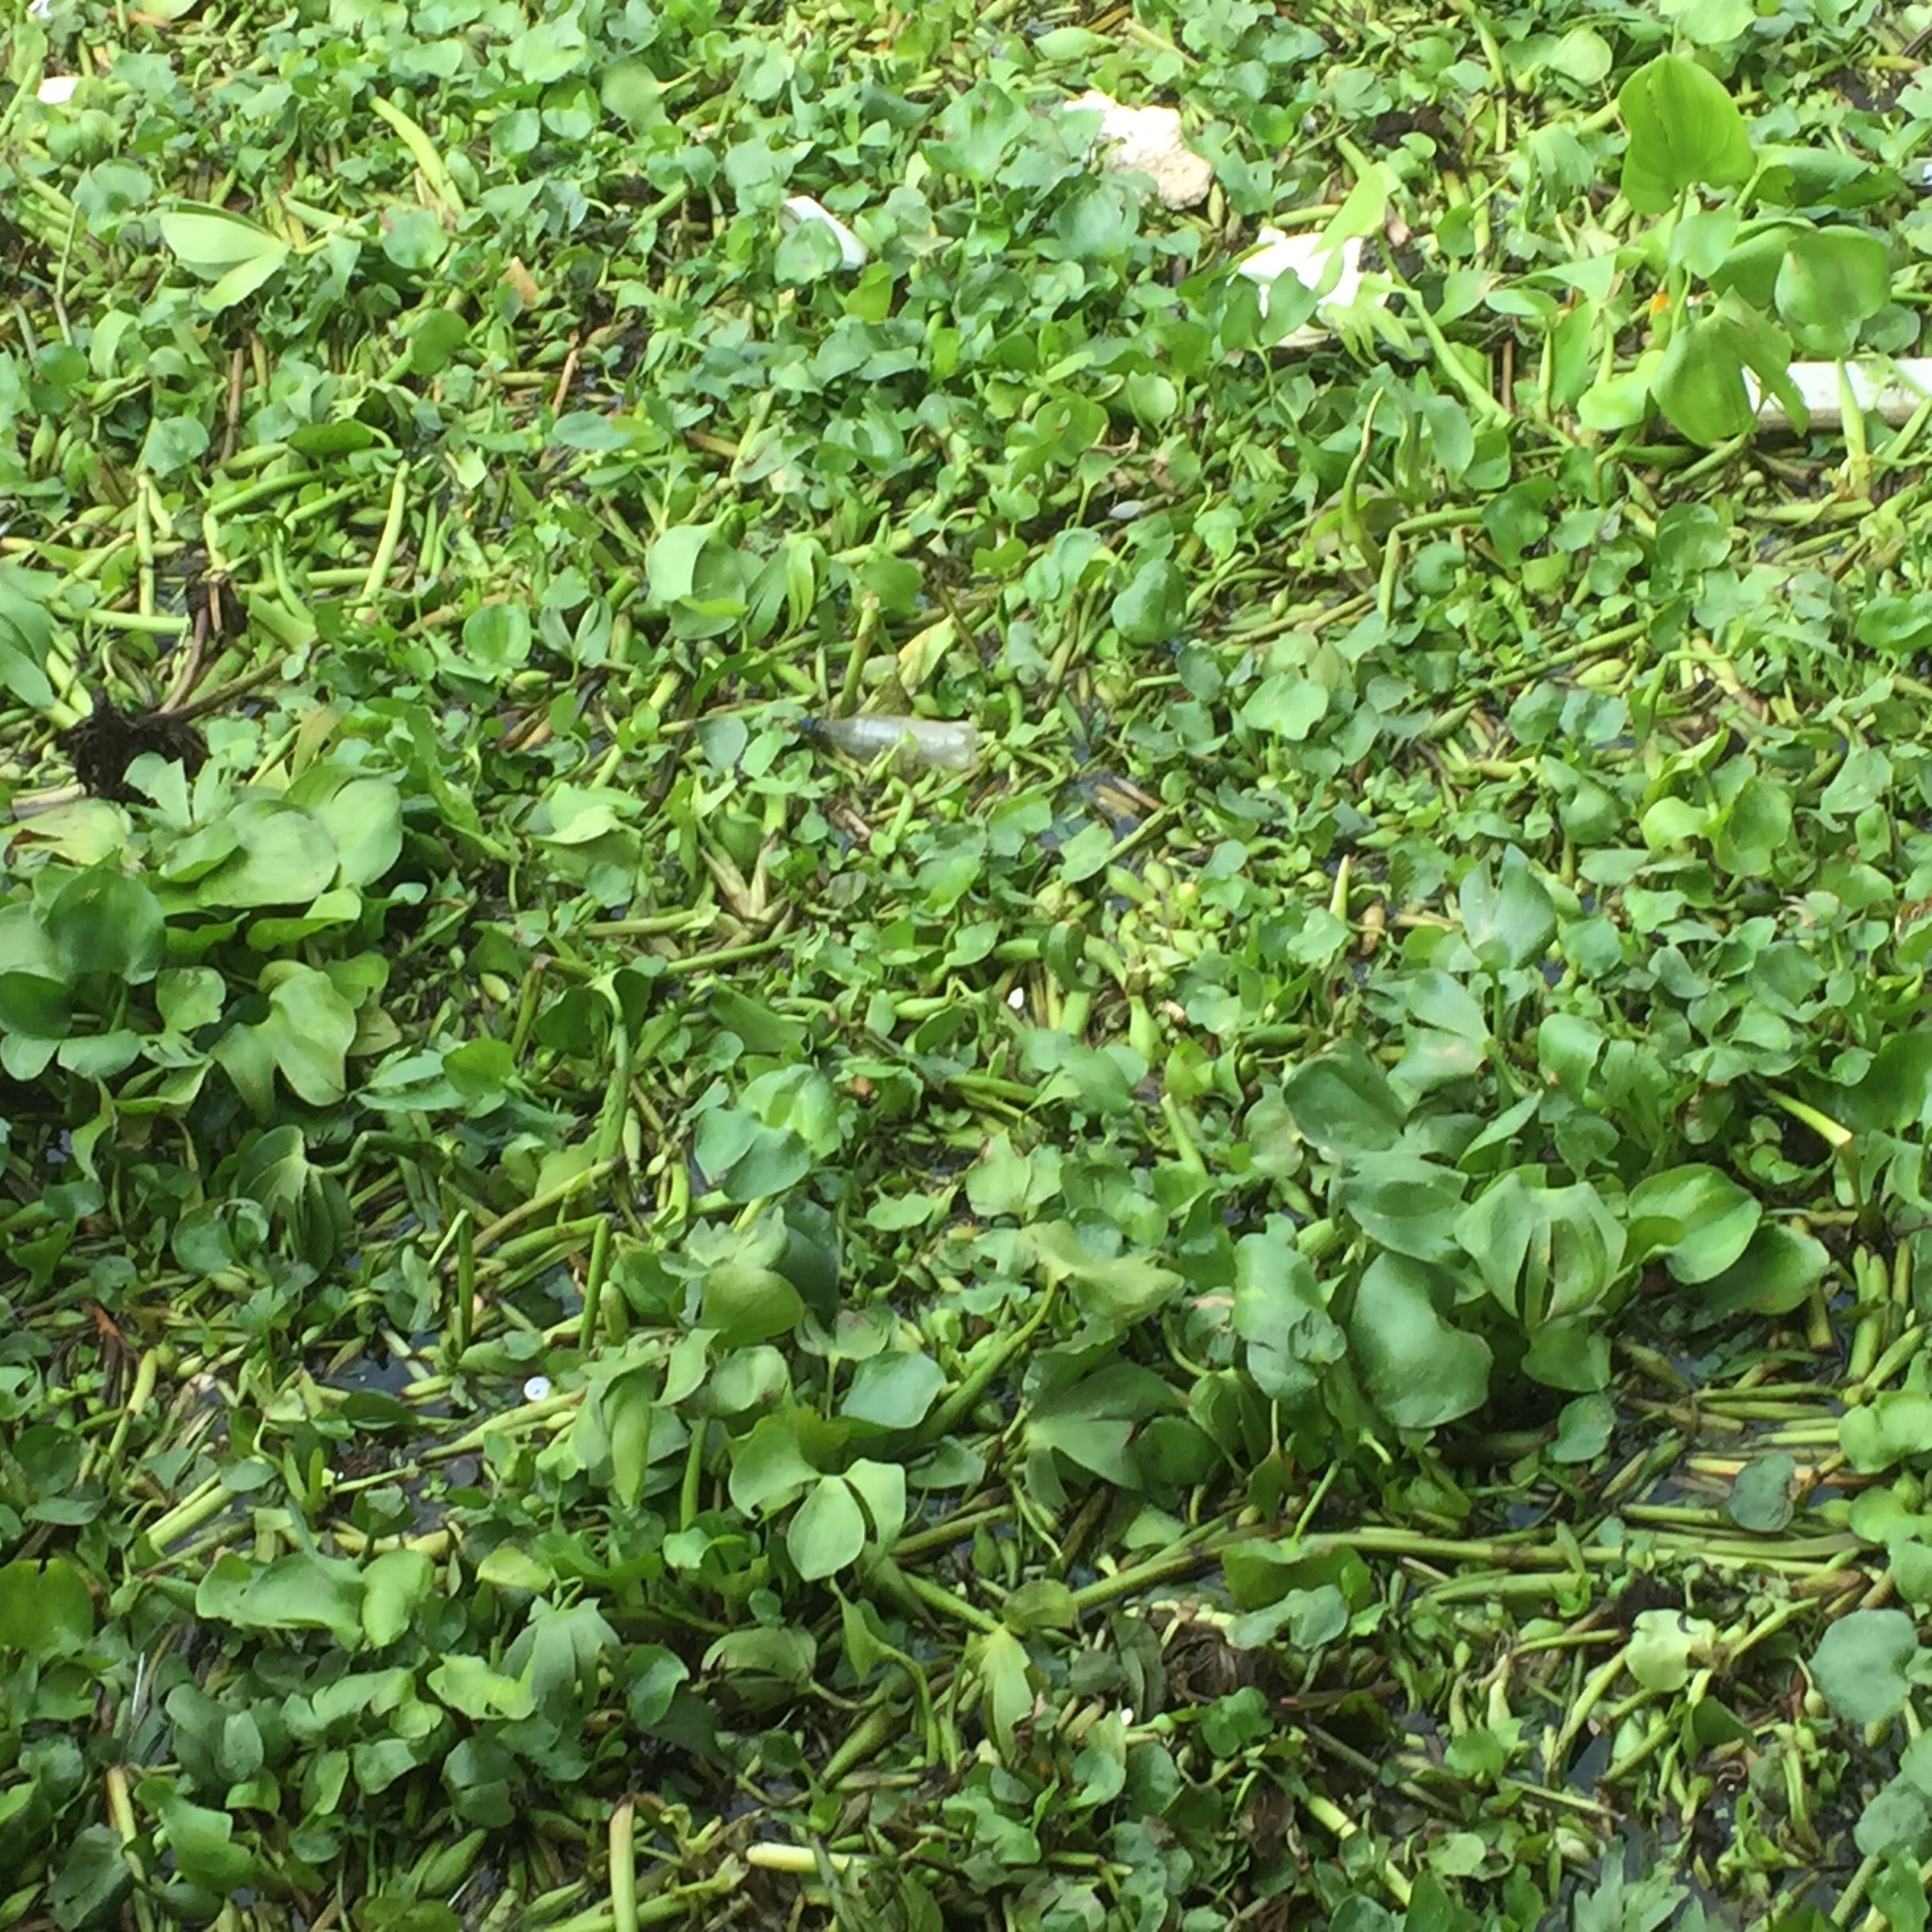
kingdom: Plantae
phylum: Tracheophyta
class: Liliopsida
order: Commelinales
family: Pontederiaceae
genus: Pontederia
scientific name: Pontederia crassipes
